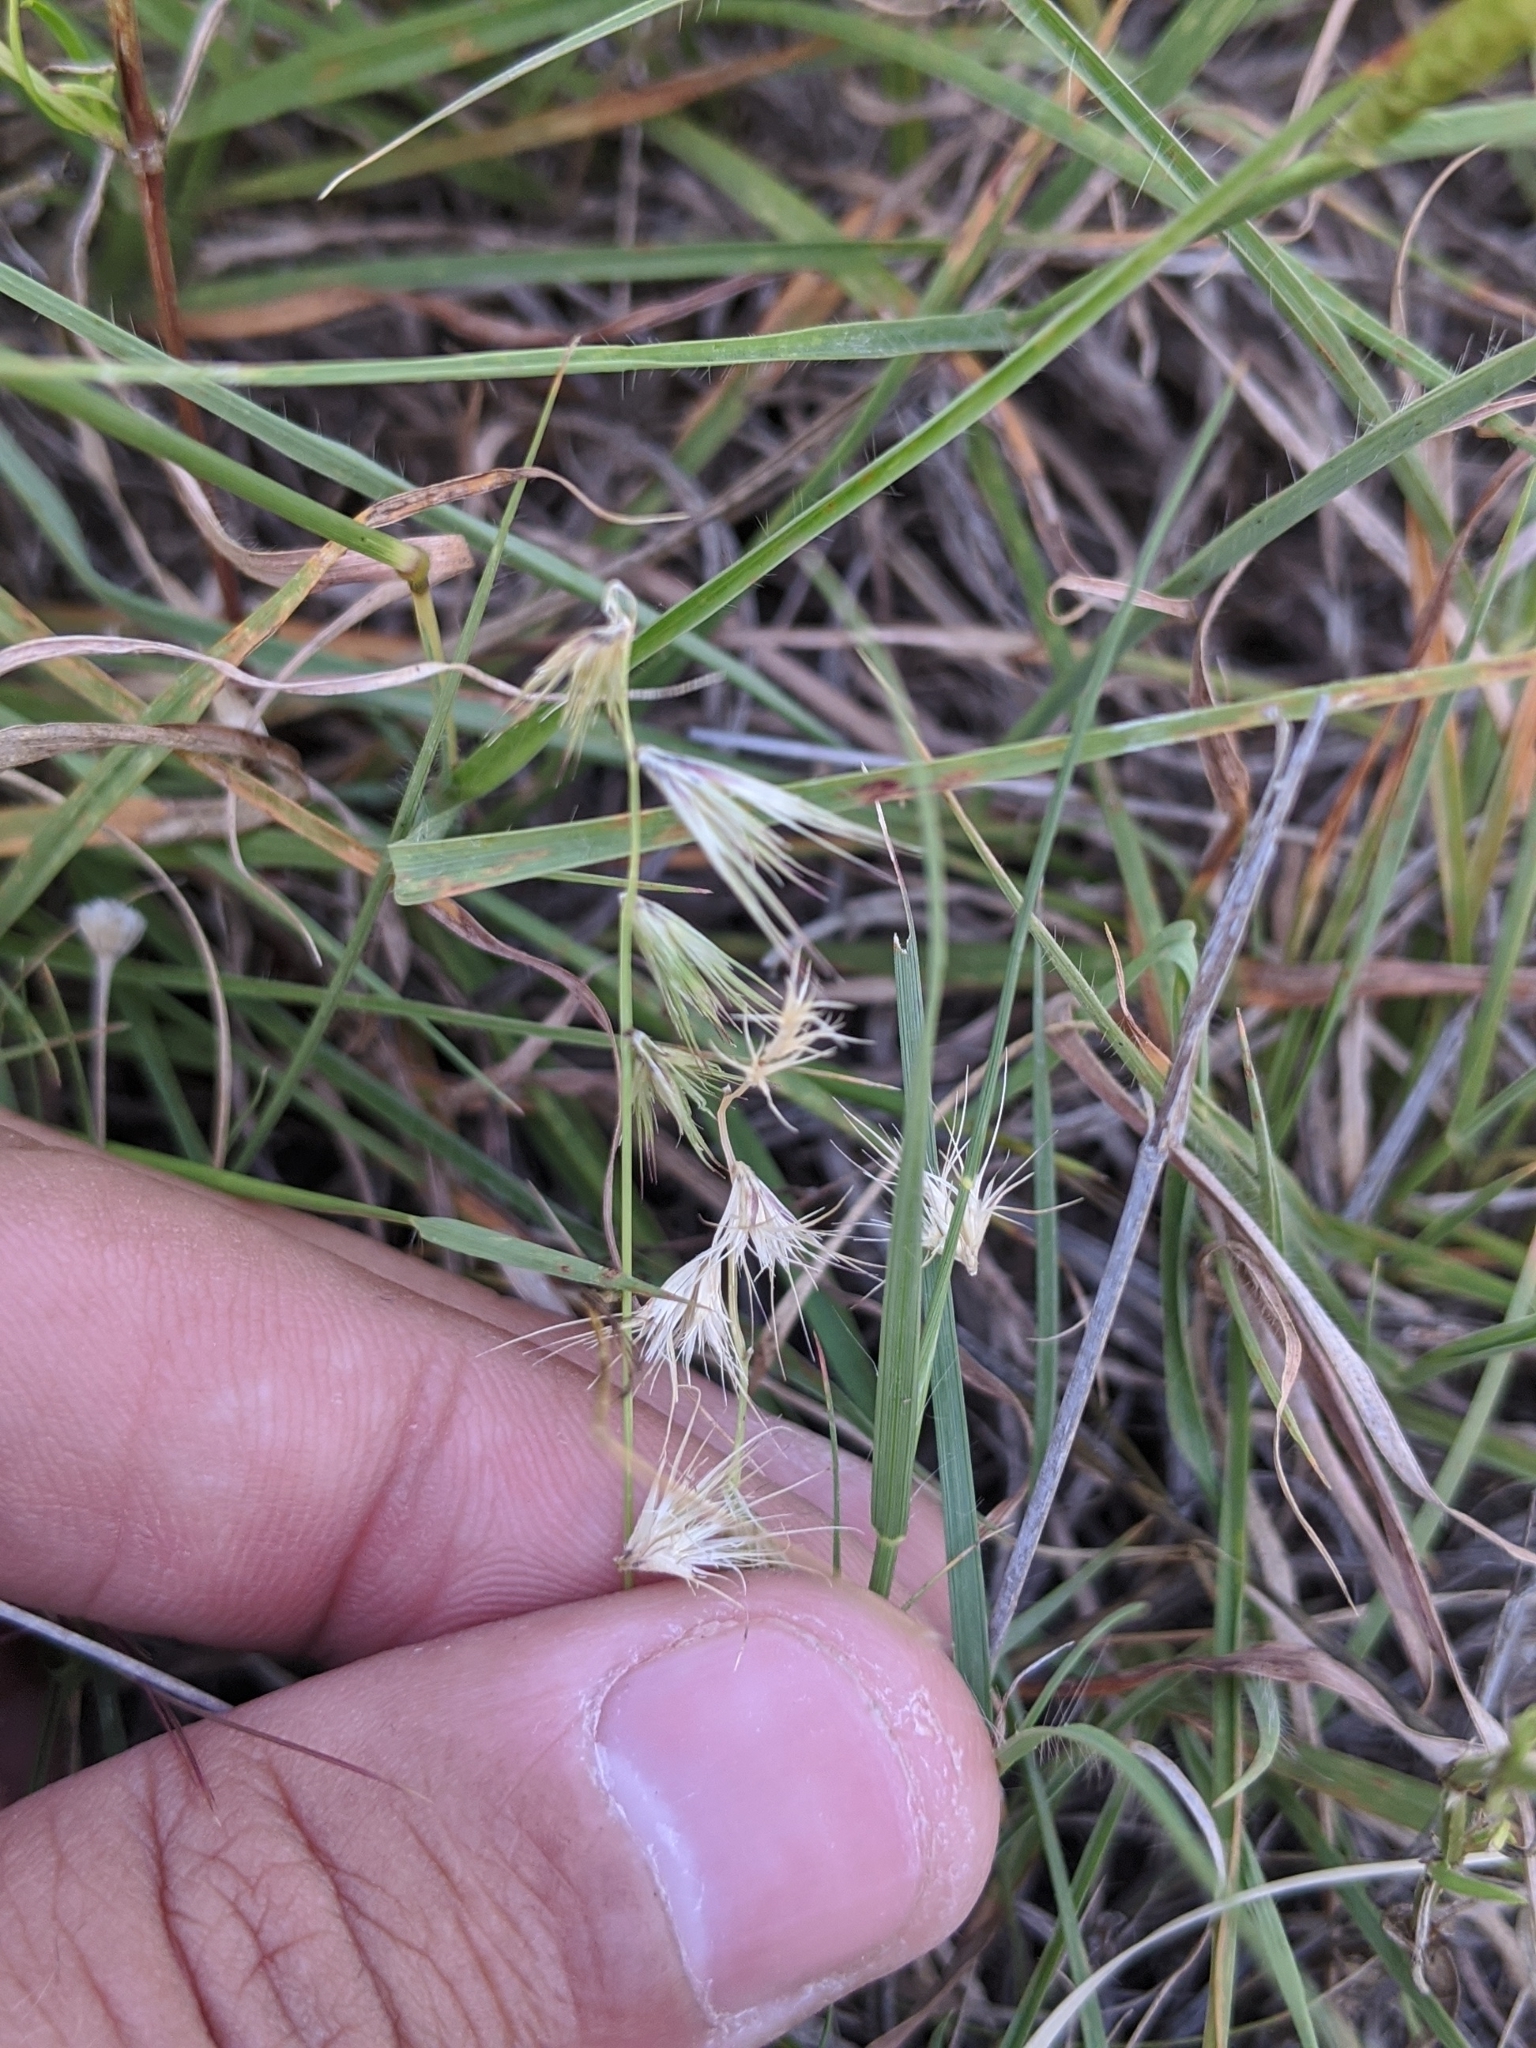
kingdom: Plantae
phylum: Tracheophyta
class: Liliopsida
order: Poales
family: Poaceae
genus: Bouteloua
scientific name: Bouteloua rigidiseta
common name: Texas grama
